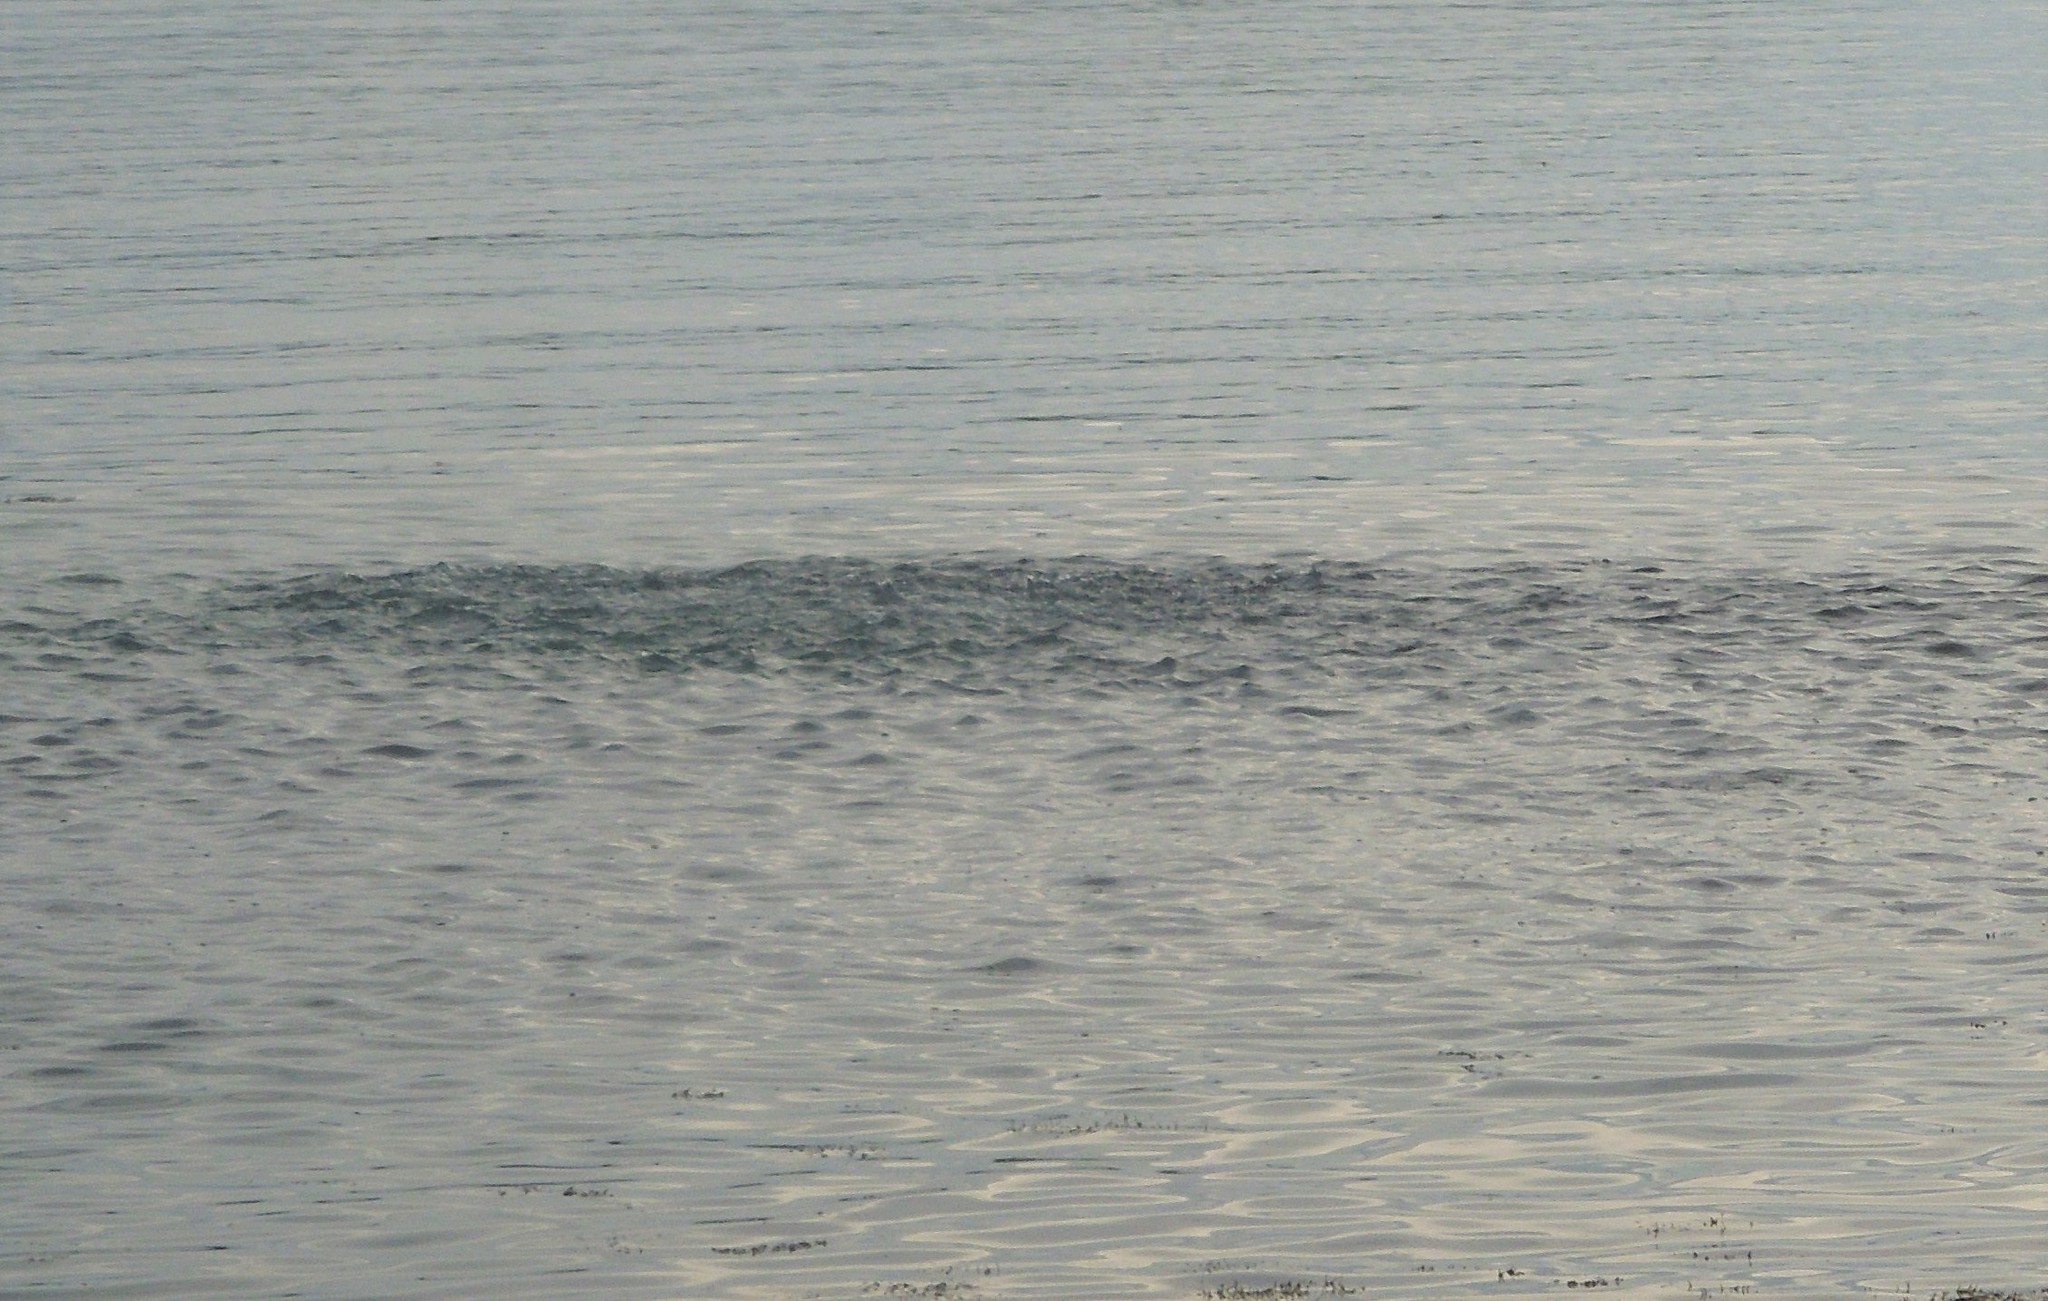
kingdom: Animalia
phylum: Chordata
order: Clupeiformes
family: Clupeidae
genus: Brevoortia
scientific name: Brevoortia tyrannus
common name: Atlantic menhaden
